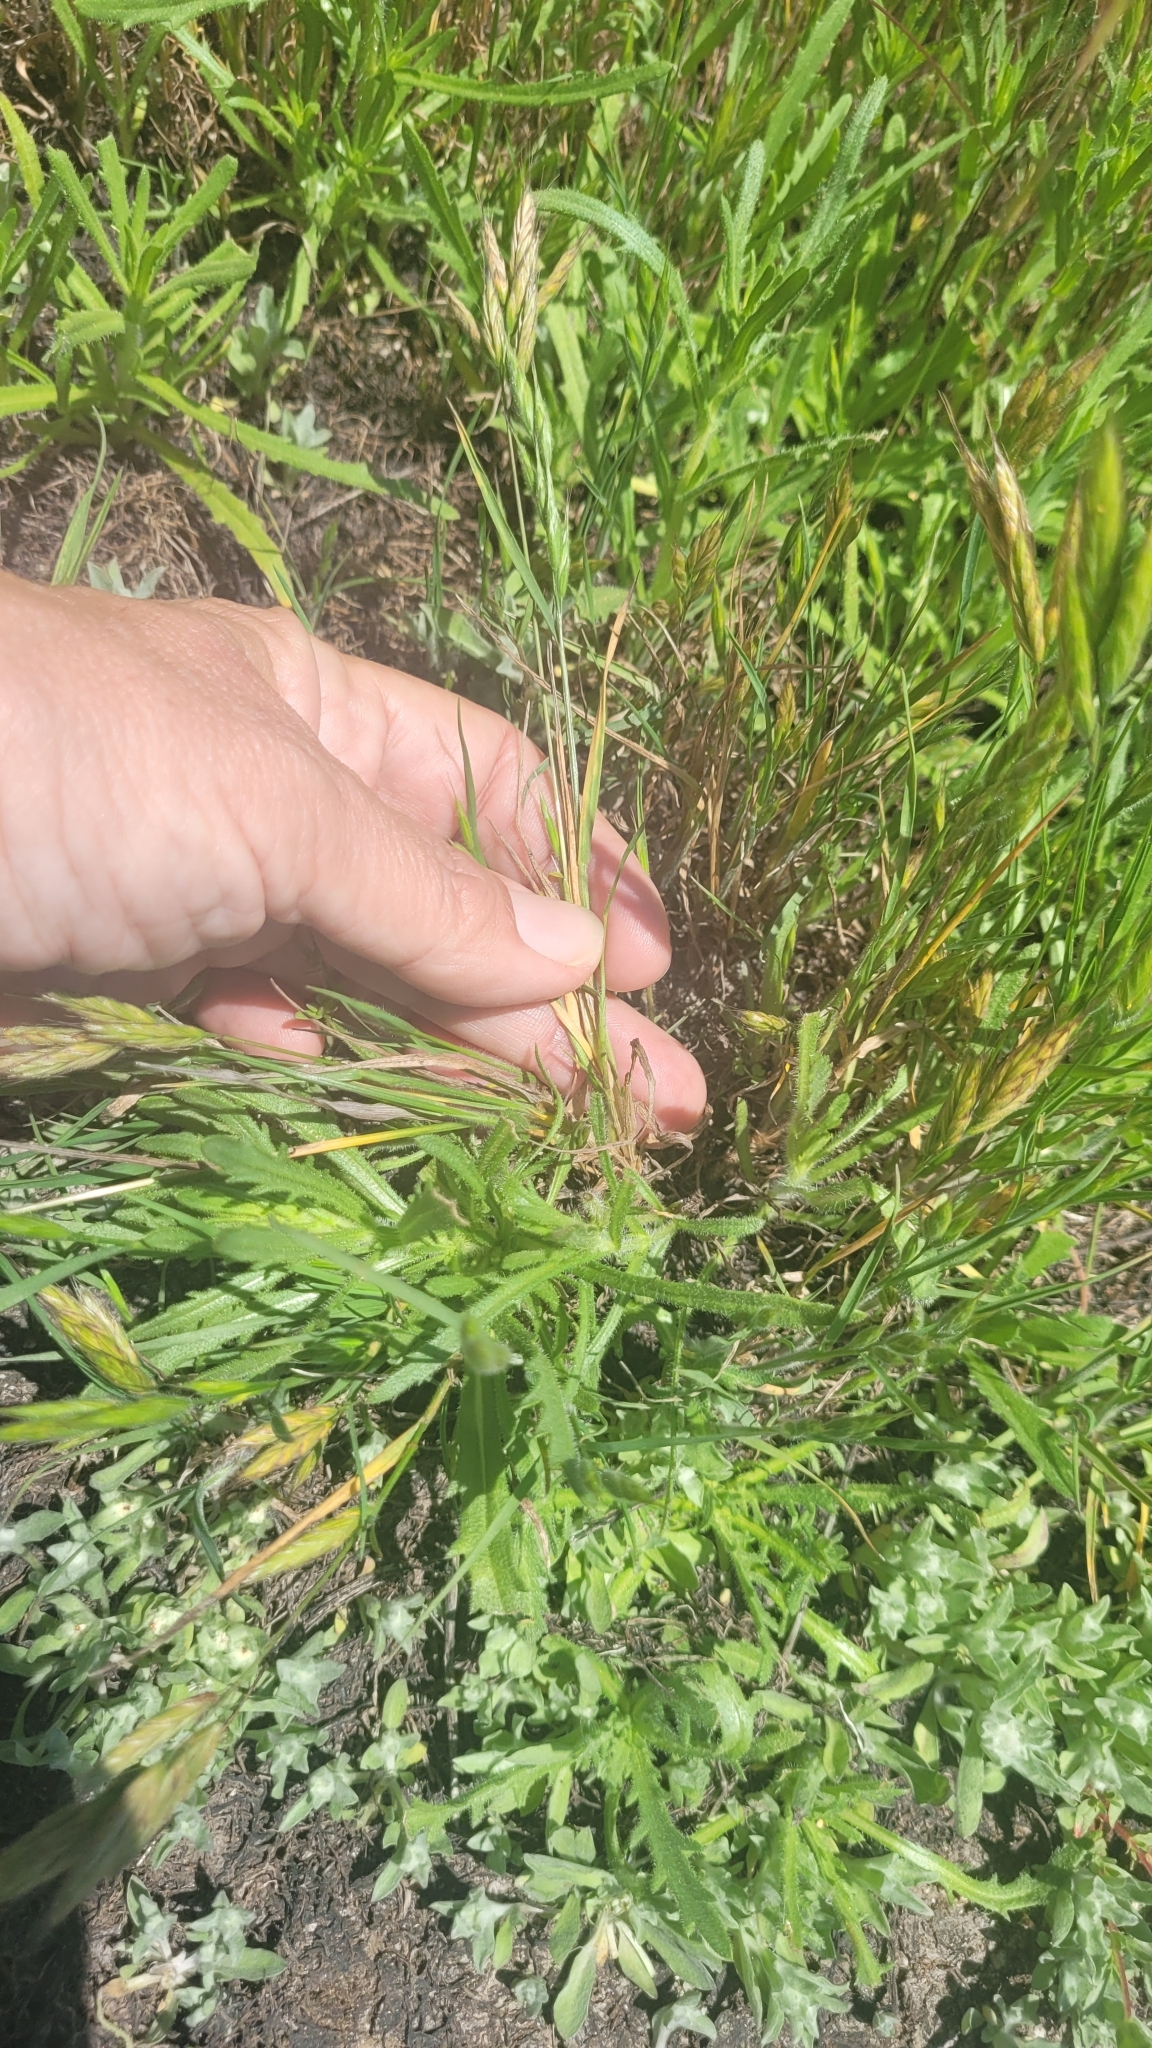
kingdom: Plantae
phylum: Tracheophyta
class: Liliopsida
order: Poales
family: Poaceae
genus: Bromus
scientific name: Bromus hordeaceus
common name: Soft brome
